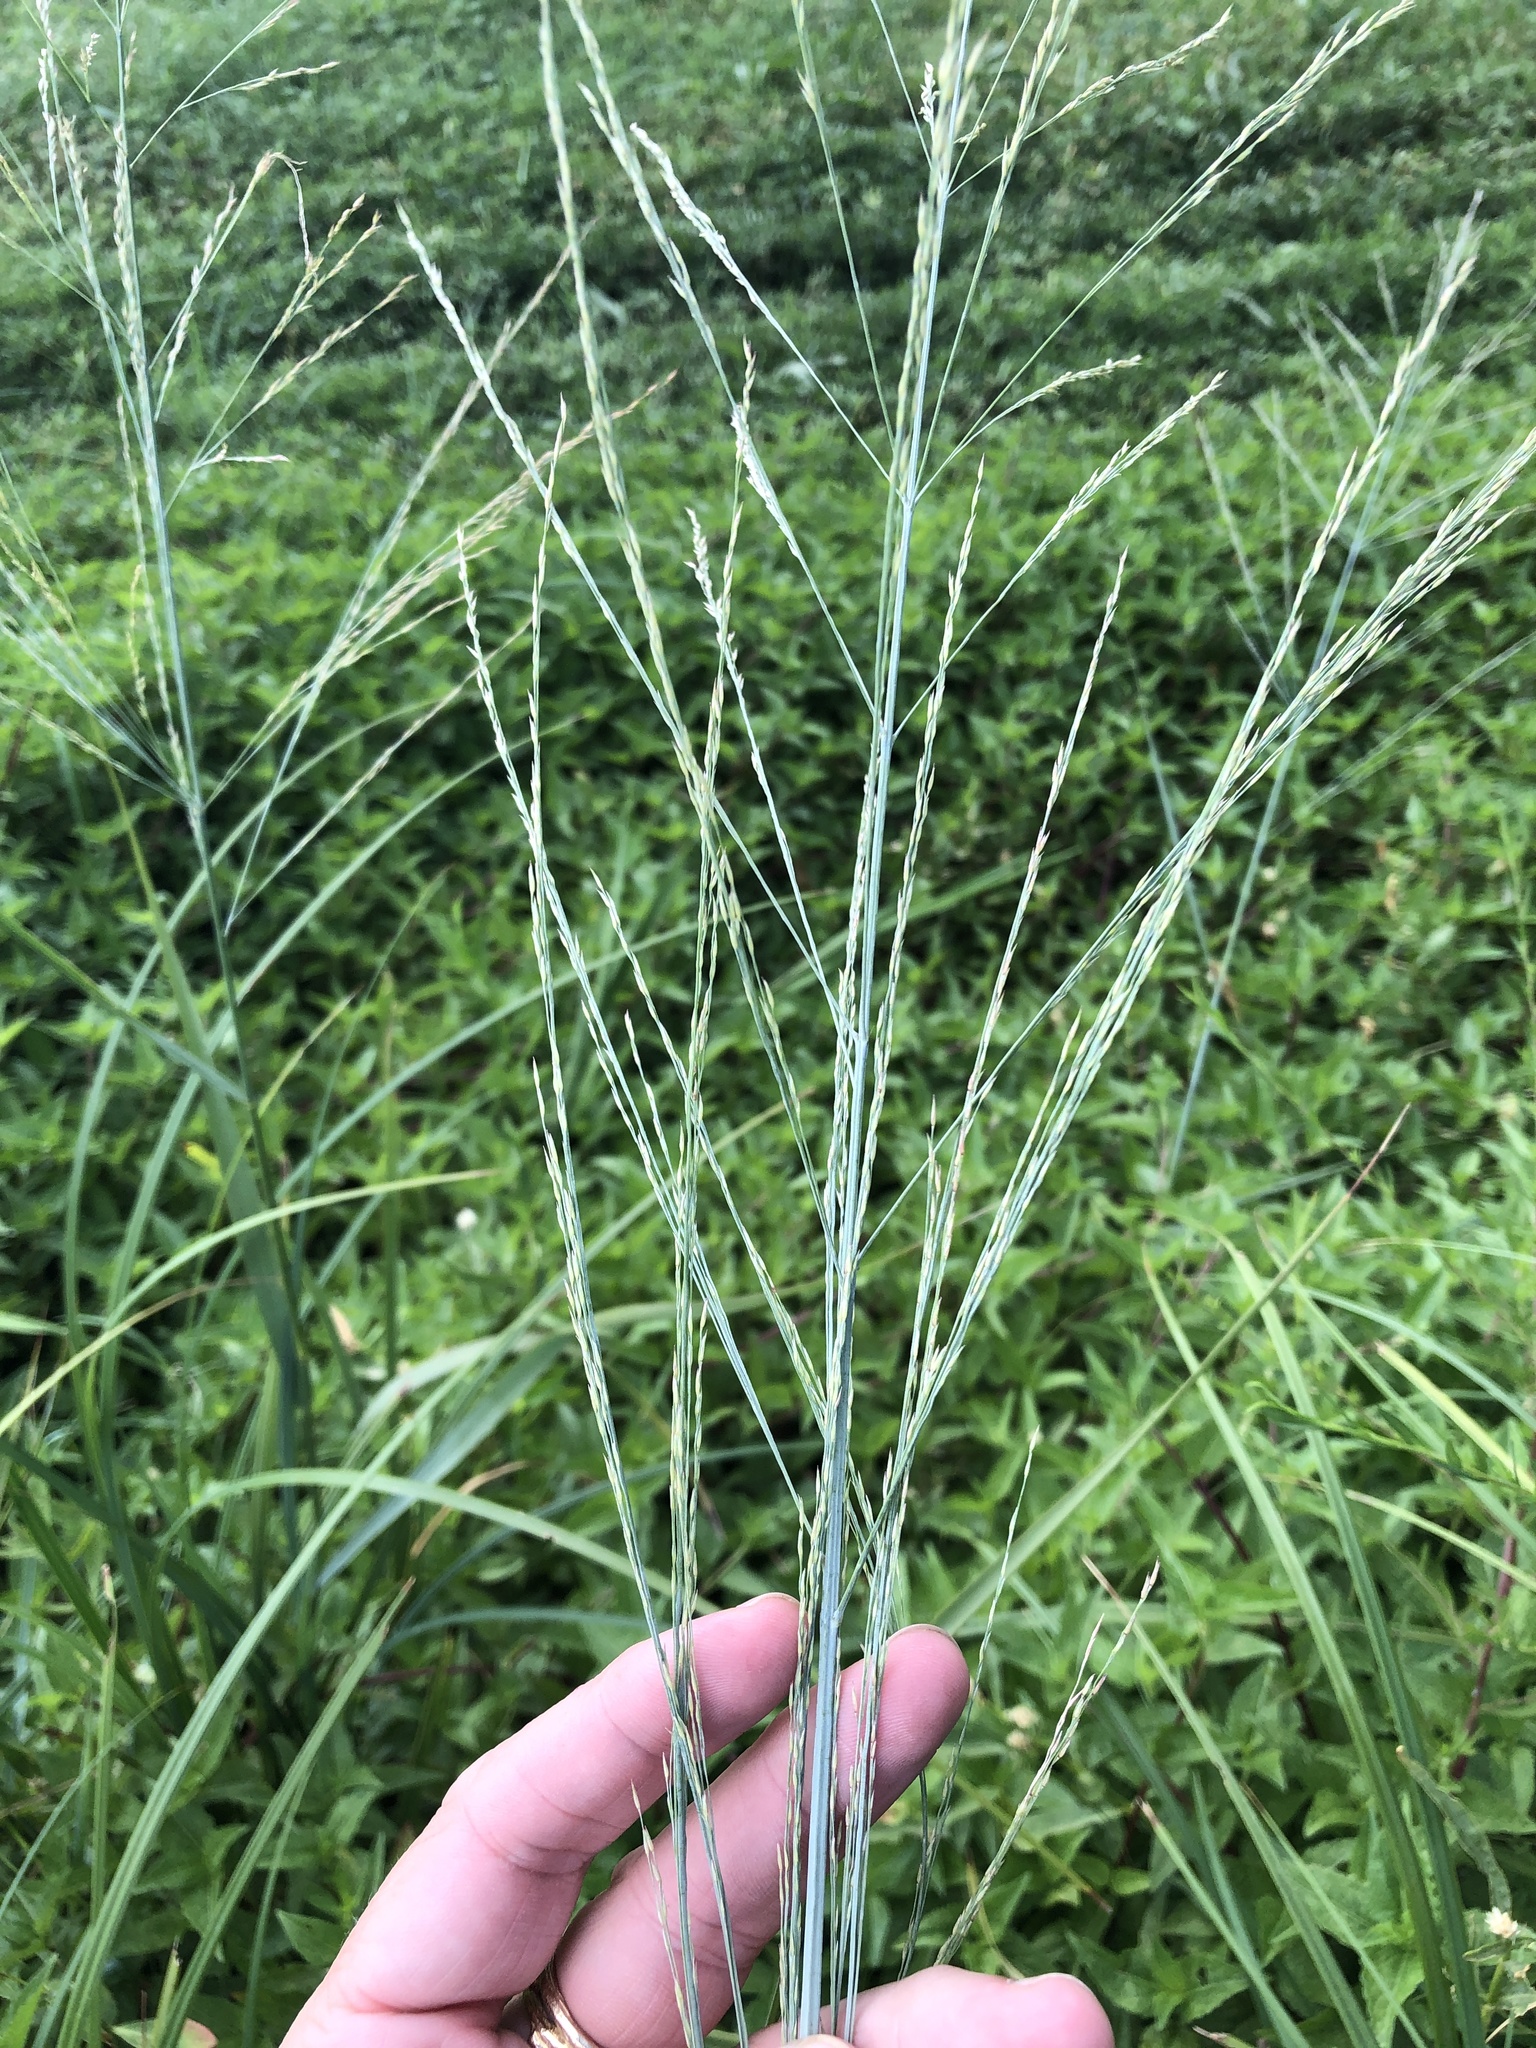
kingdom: Plantae
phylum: Tracheophyta
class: Liliopsida
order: Poales
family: Poaceae
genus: Panicum
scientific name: Panicum virgatum
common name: Switchgrass
